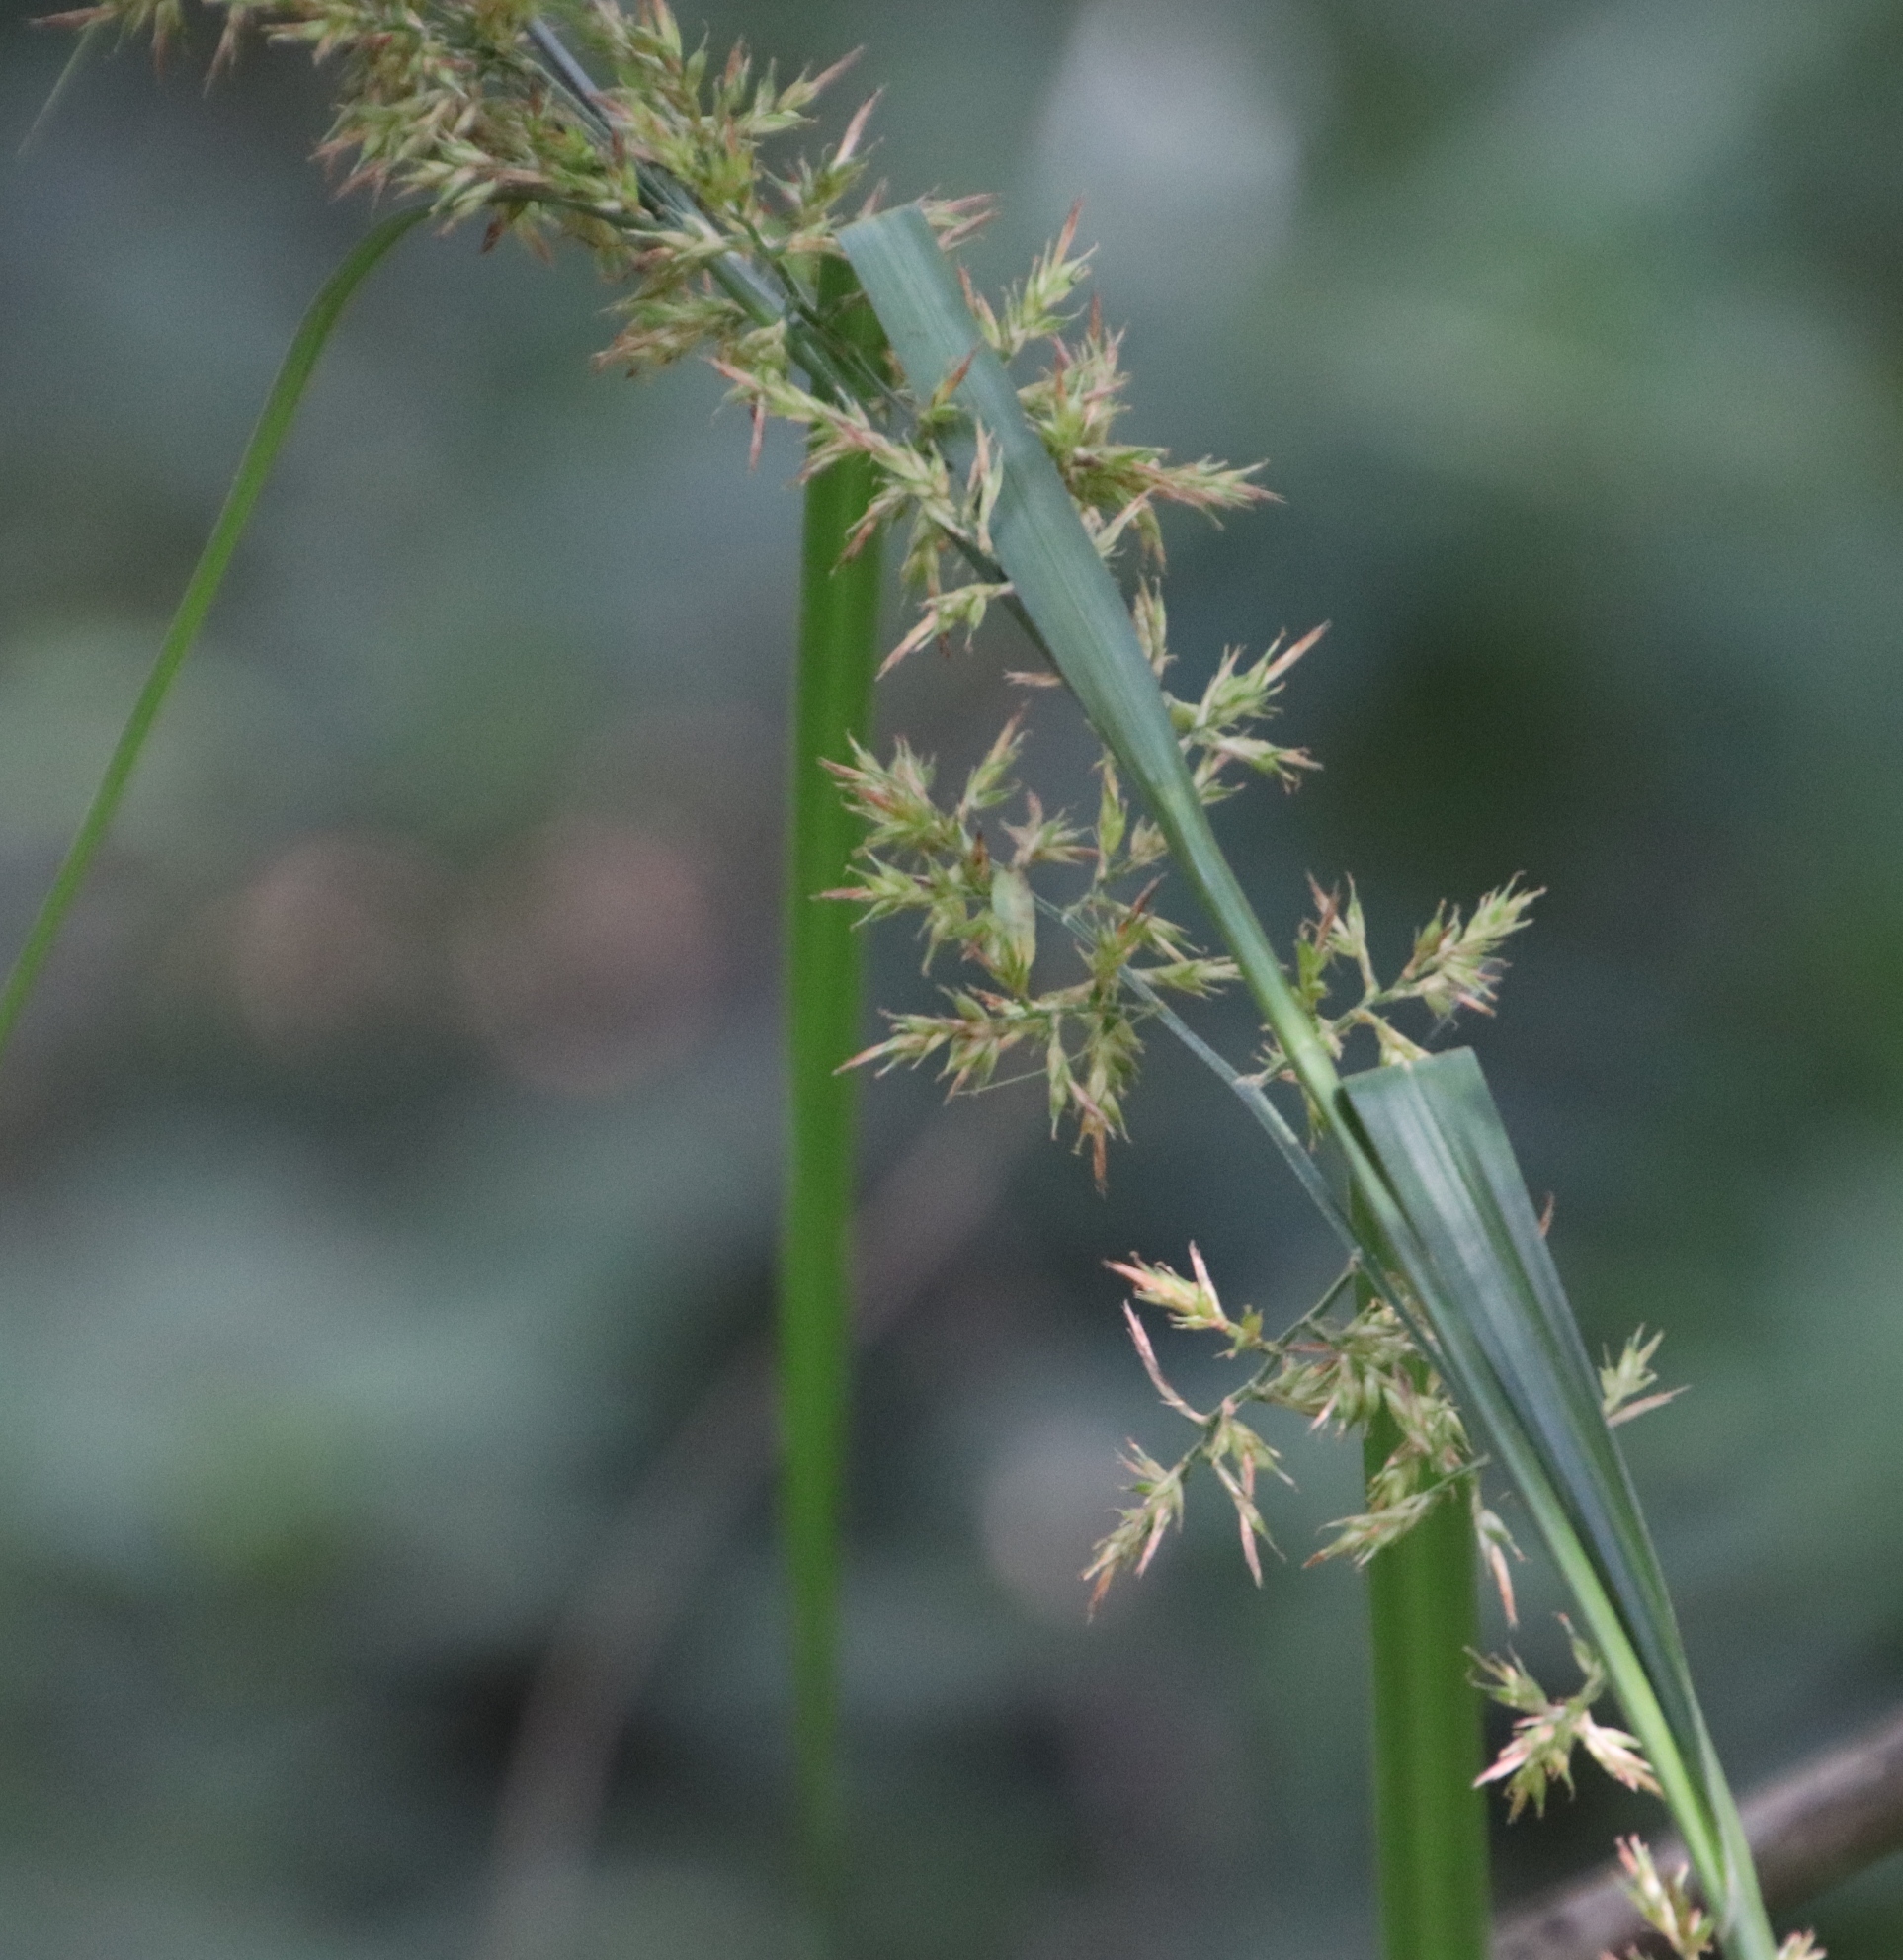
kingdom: Plantae
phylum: Tracheophyta
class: Liliopsida
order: Poales
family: Cyperaceae
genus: Carex
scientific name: Carex spicatopaniculata
